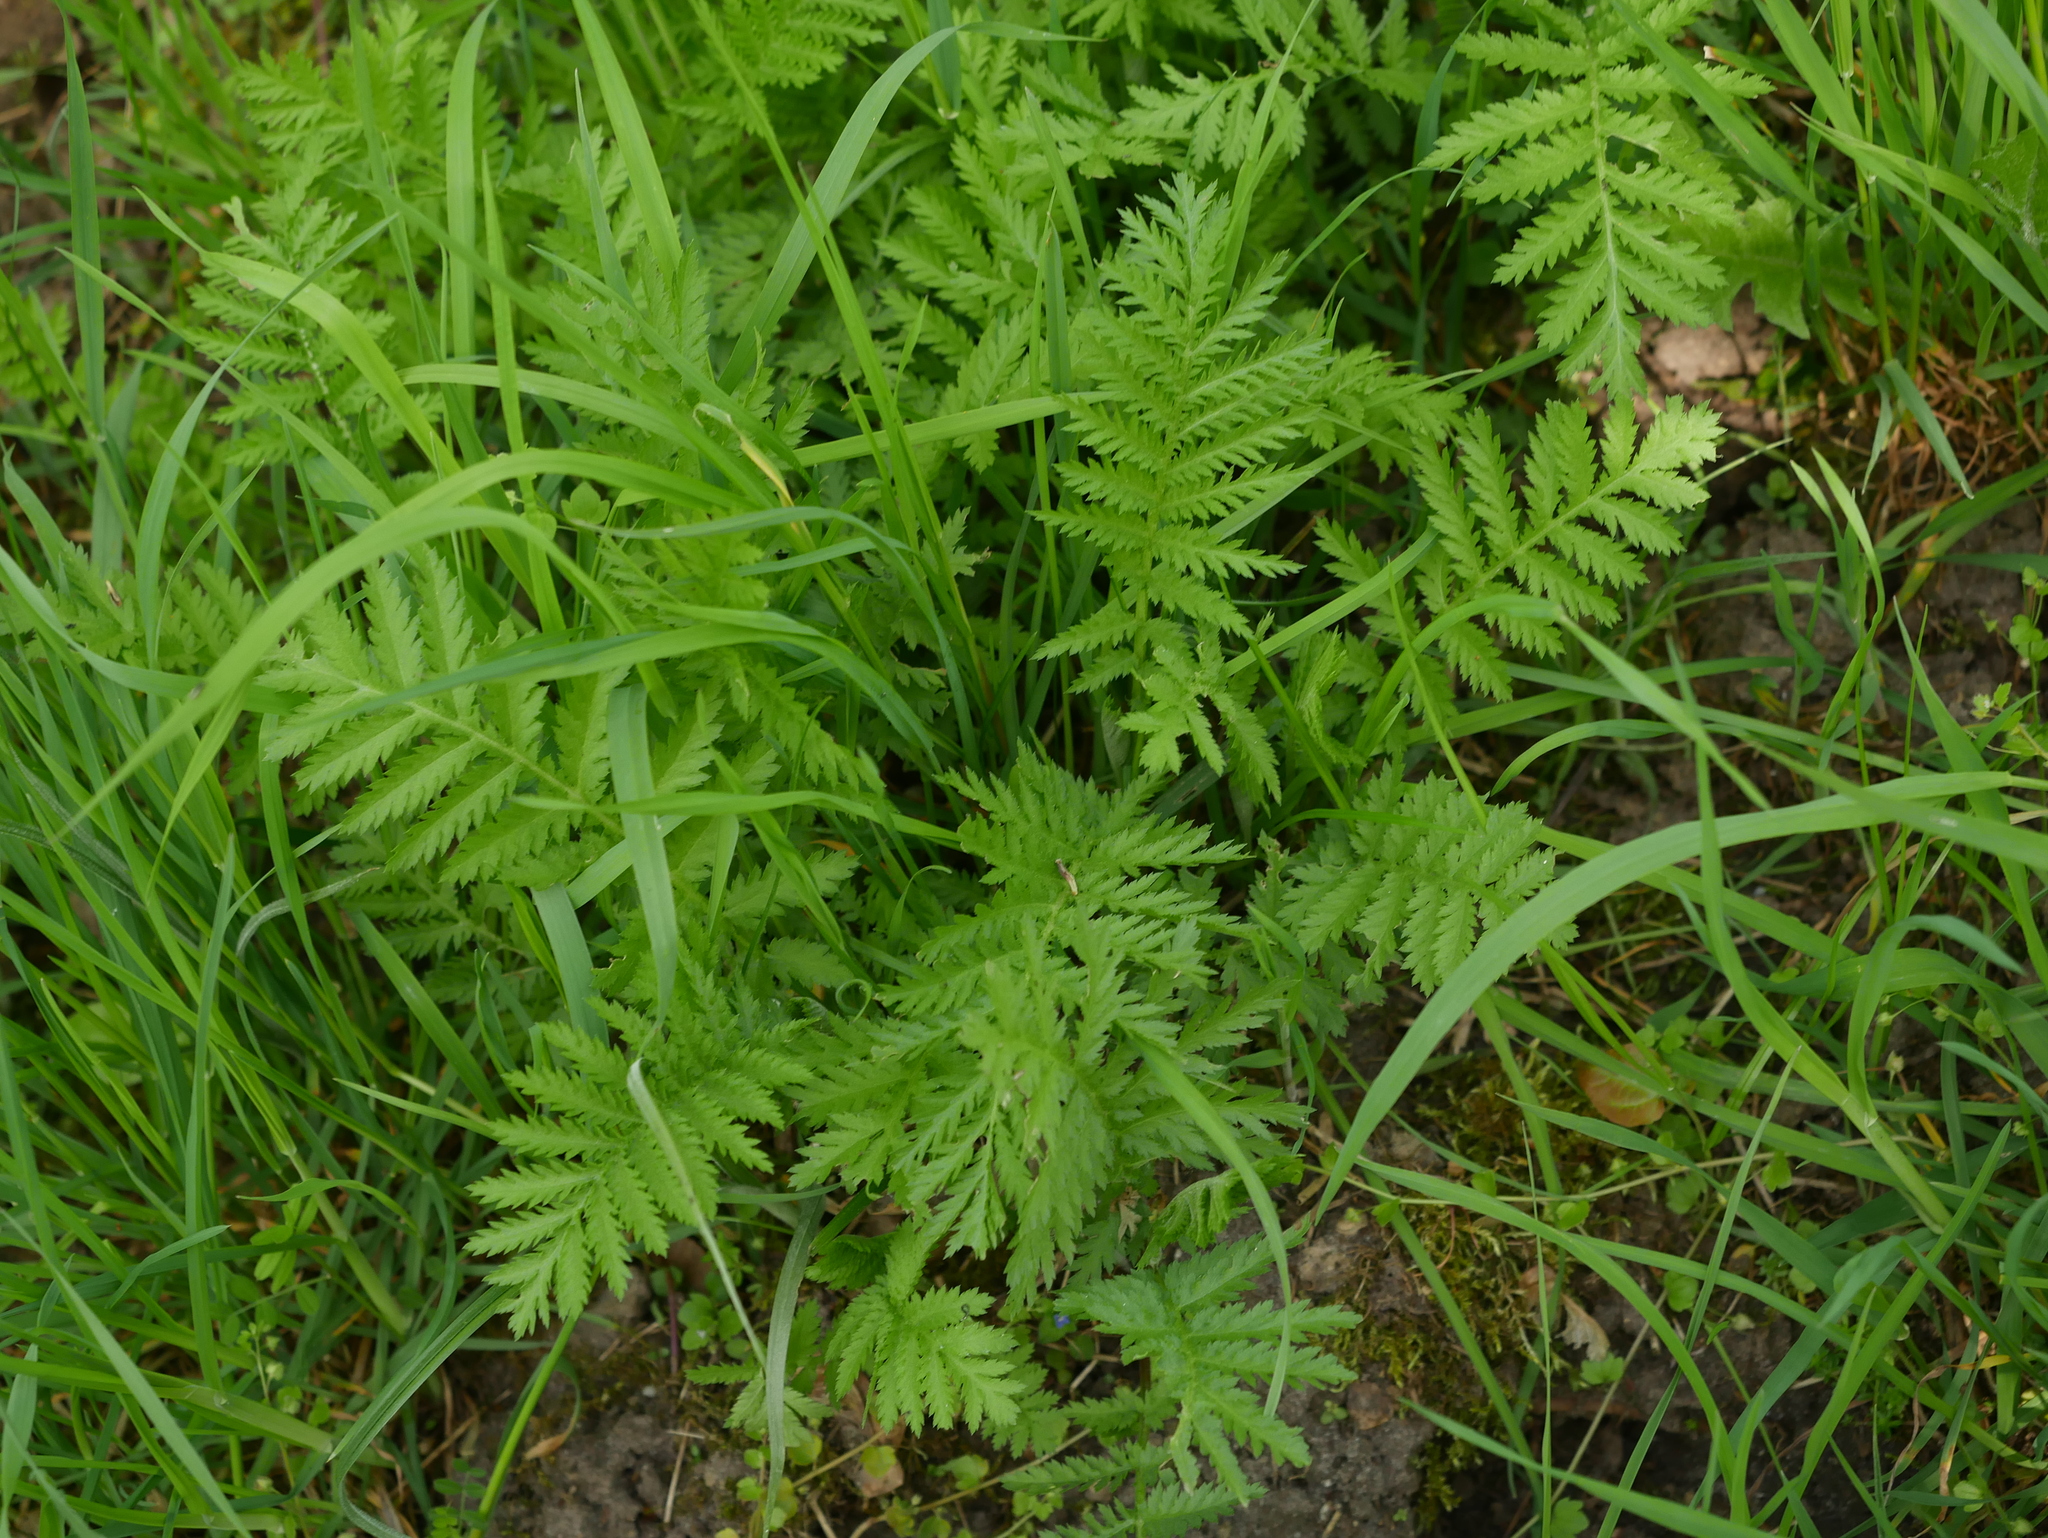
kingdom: Plantae
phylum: Tracheophyta
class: Magnoliopsida
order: Asterales
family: Asteraceae
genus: Tanacetum
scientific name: Tanacetum vulgare
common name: Common tansy
